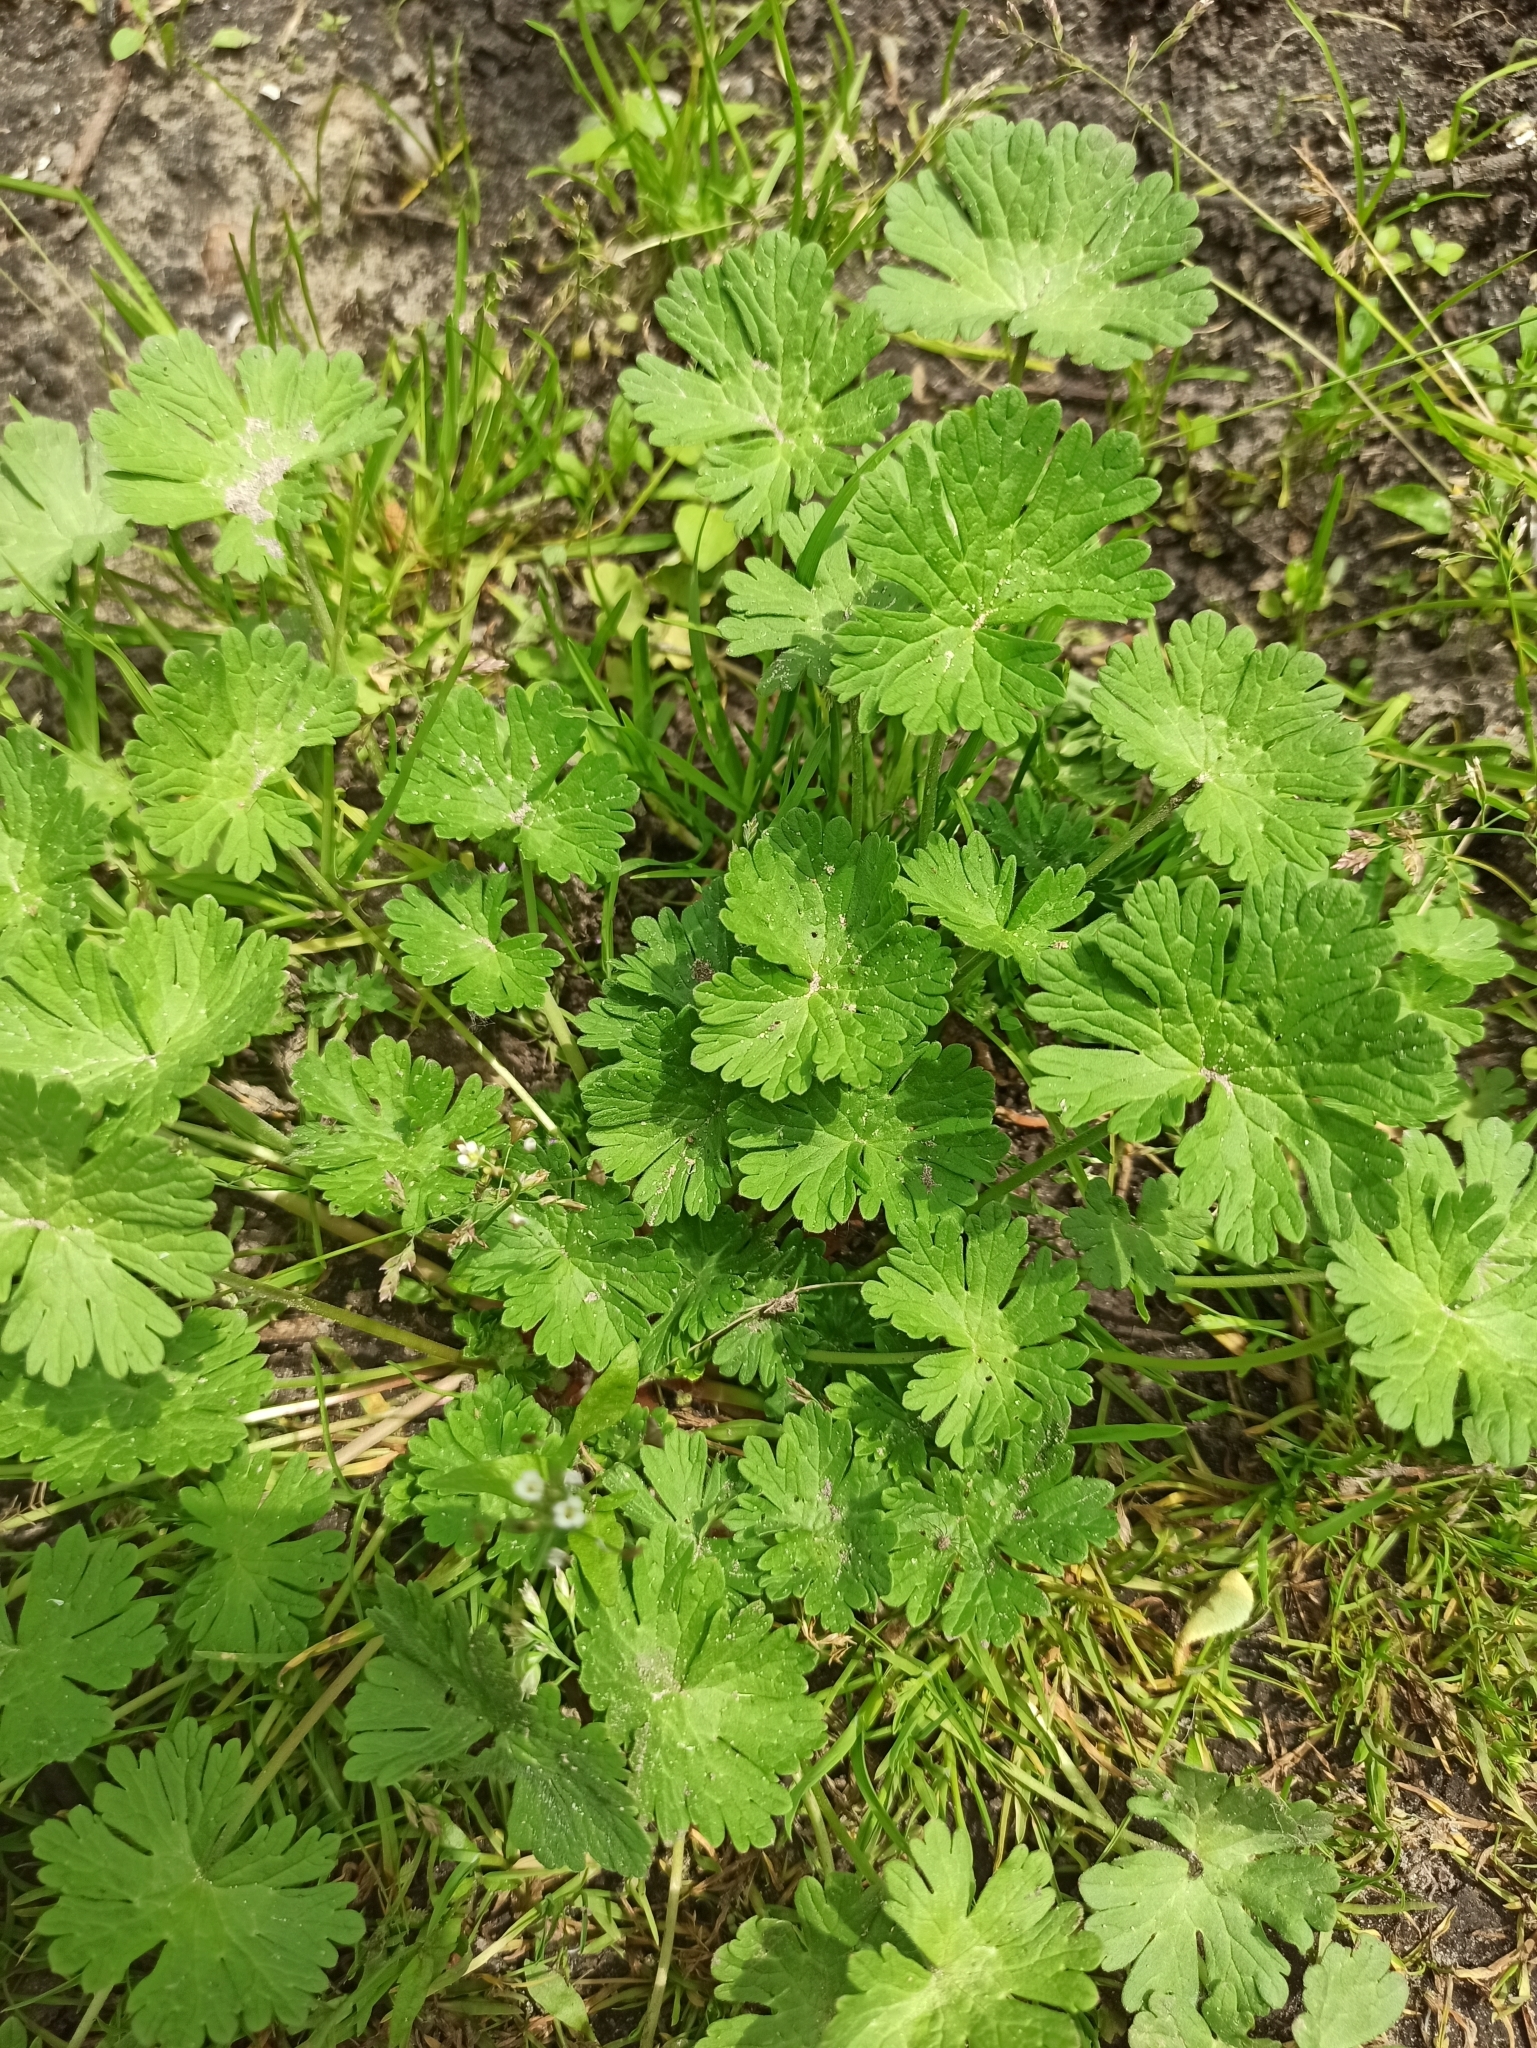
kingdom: Plantae
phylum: Tracheophyta
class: Magnoliopsida
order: Geraniales
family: Geraniaceae
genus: Geranium
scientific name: Geranium pusillum
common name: Small geranium
